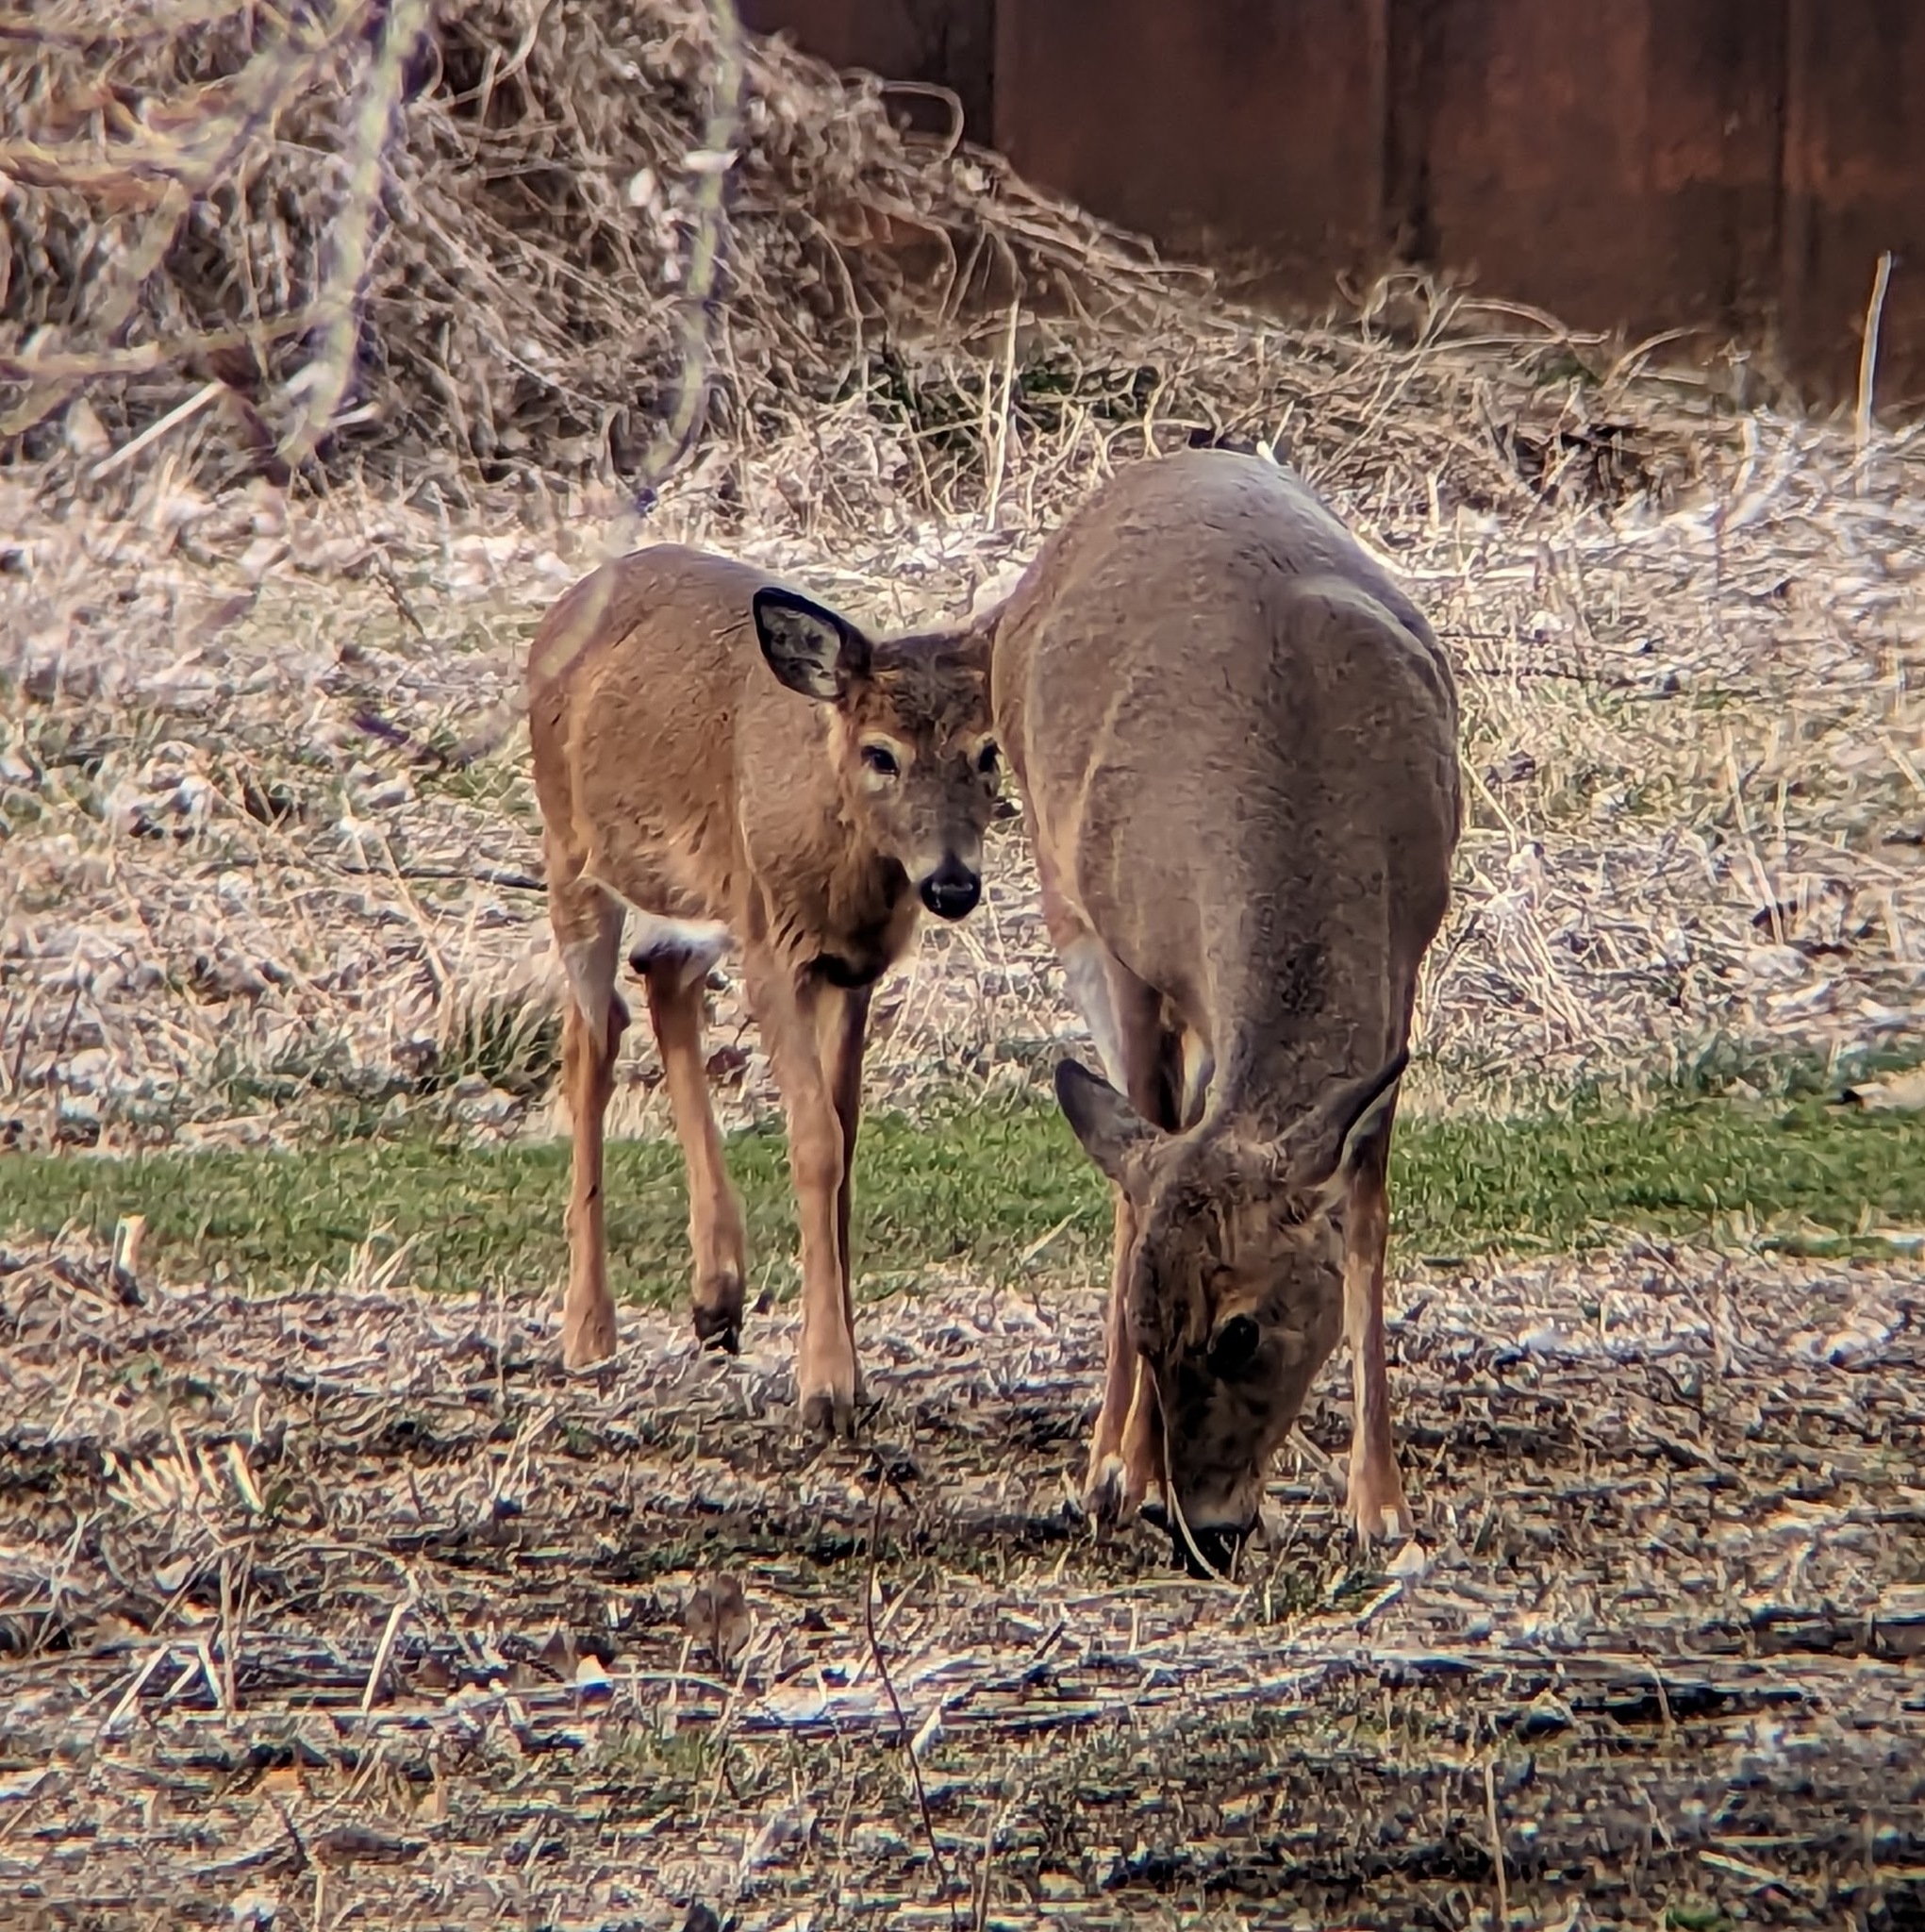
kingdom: Animalia
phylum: Chordata
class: Mammalia
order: Artiodactyla
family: Cervidae
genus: Odocoileus
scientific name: Odocoileus virginianus
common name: White-tailed deer
